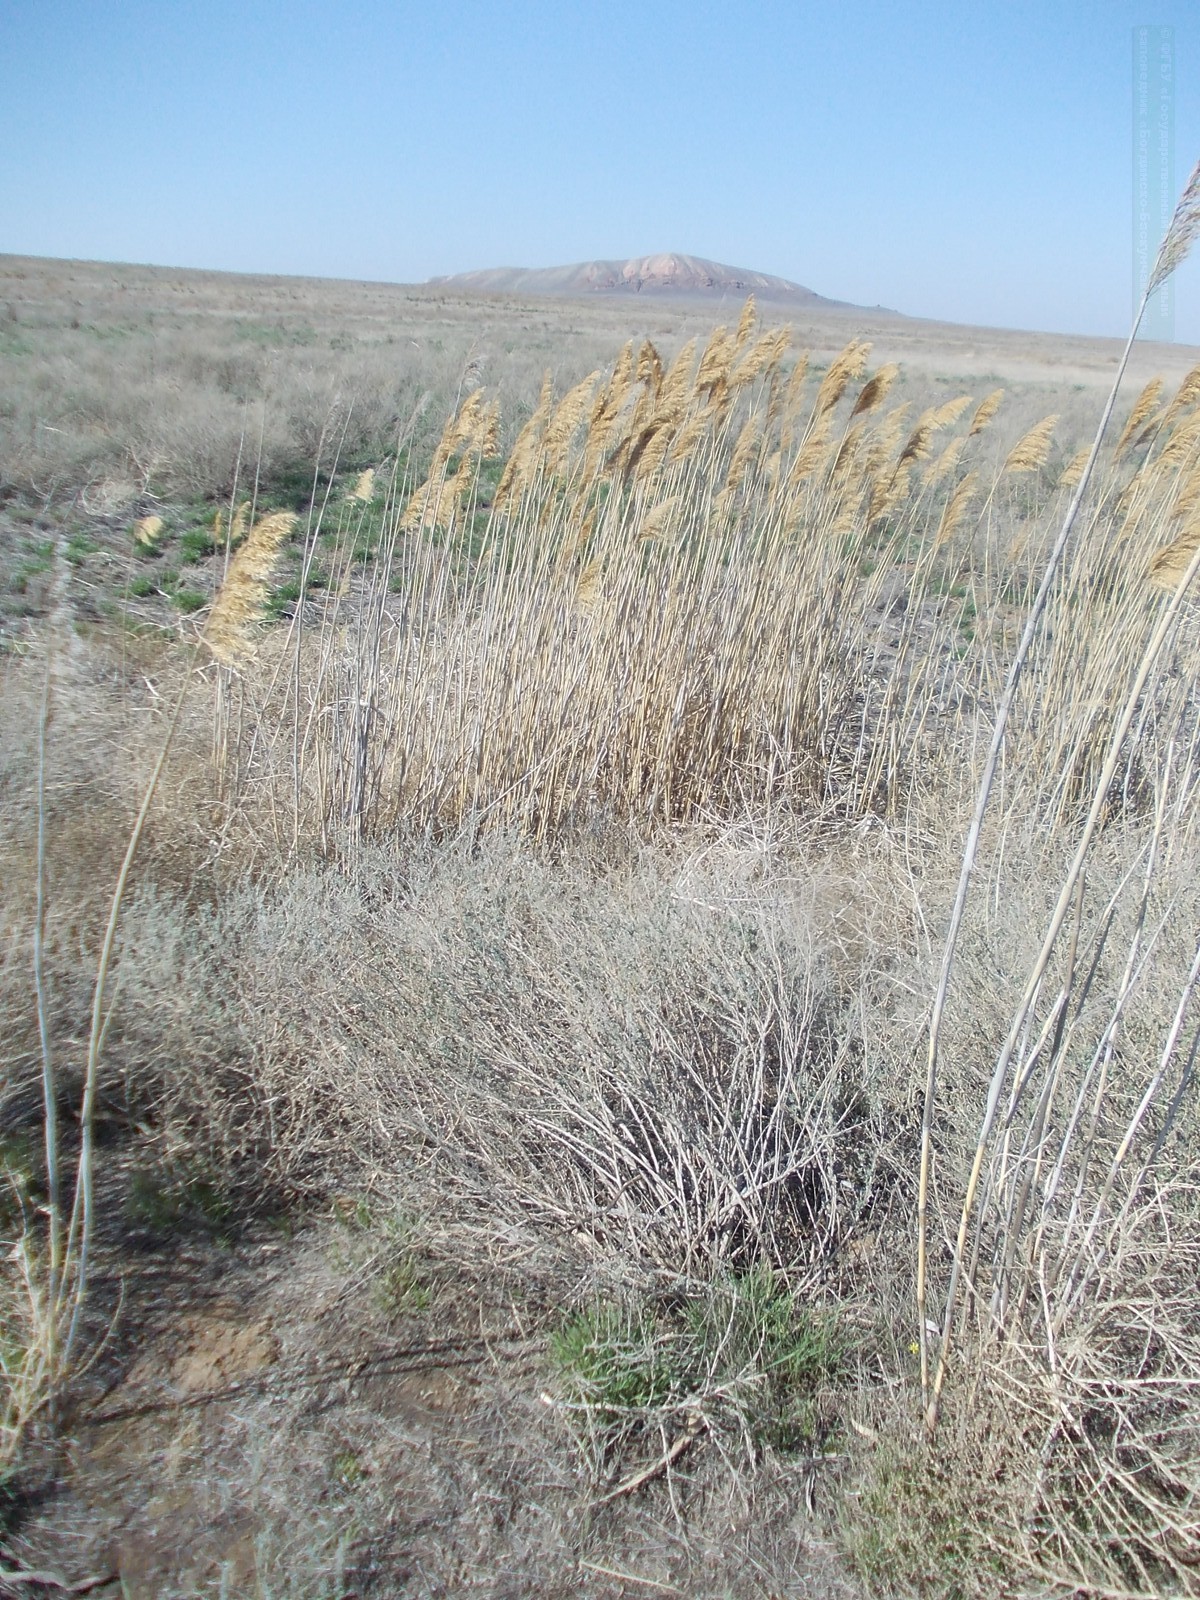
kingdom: Plantae
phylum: Tracheophyta
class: Liliopsida
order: Poales
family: Poaceae
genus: Phragmites
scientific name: Phragmites australis
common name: Common reed
